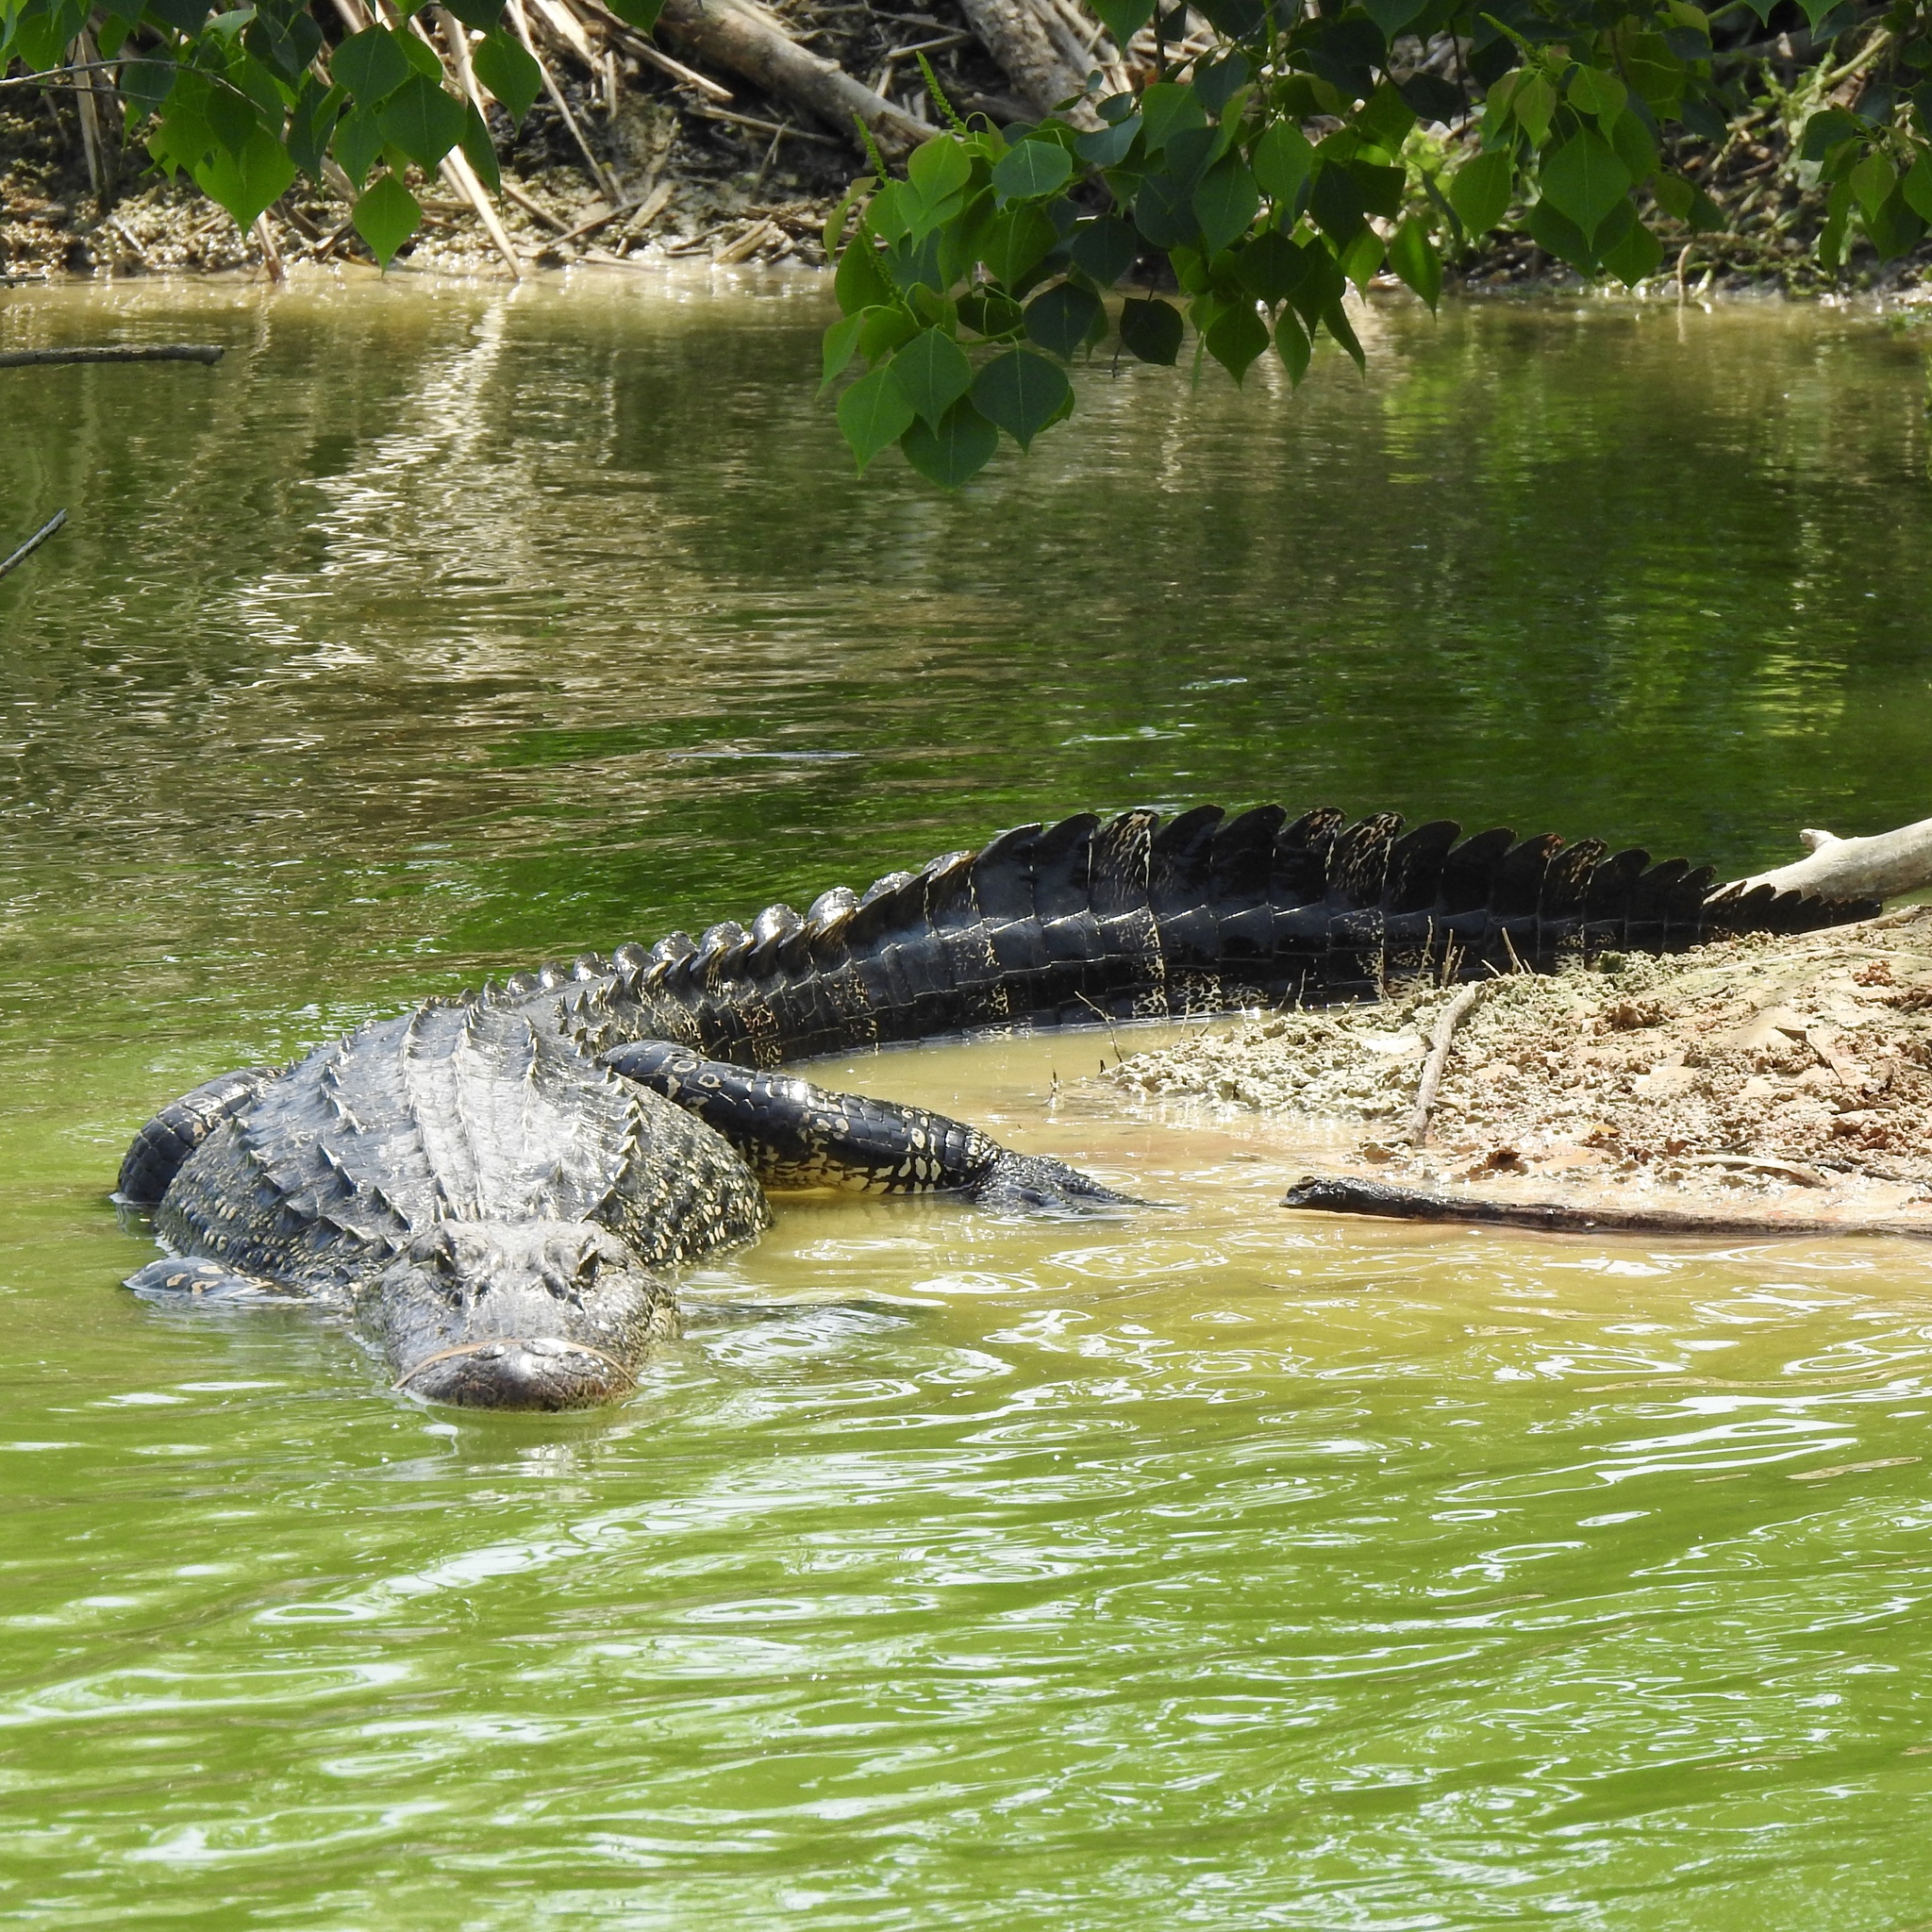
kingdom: Animalia
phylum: Chordata
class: Crocodylia
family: Alligatoridae
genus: Alligator
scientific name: Alligator mississippiensis
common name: American alligator
